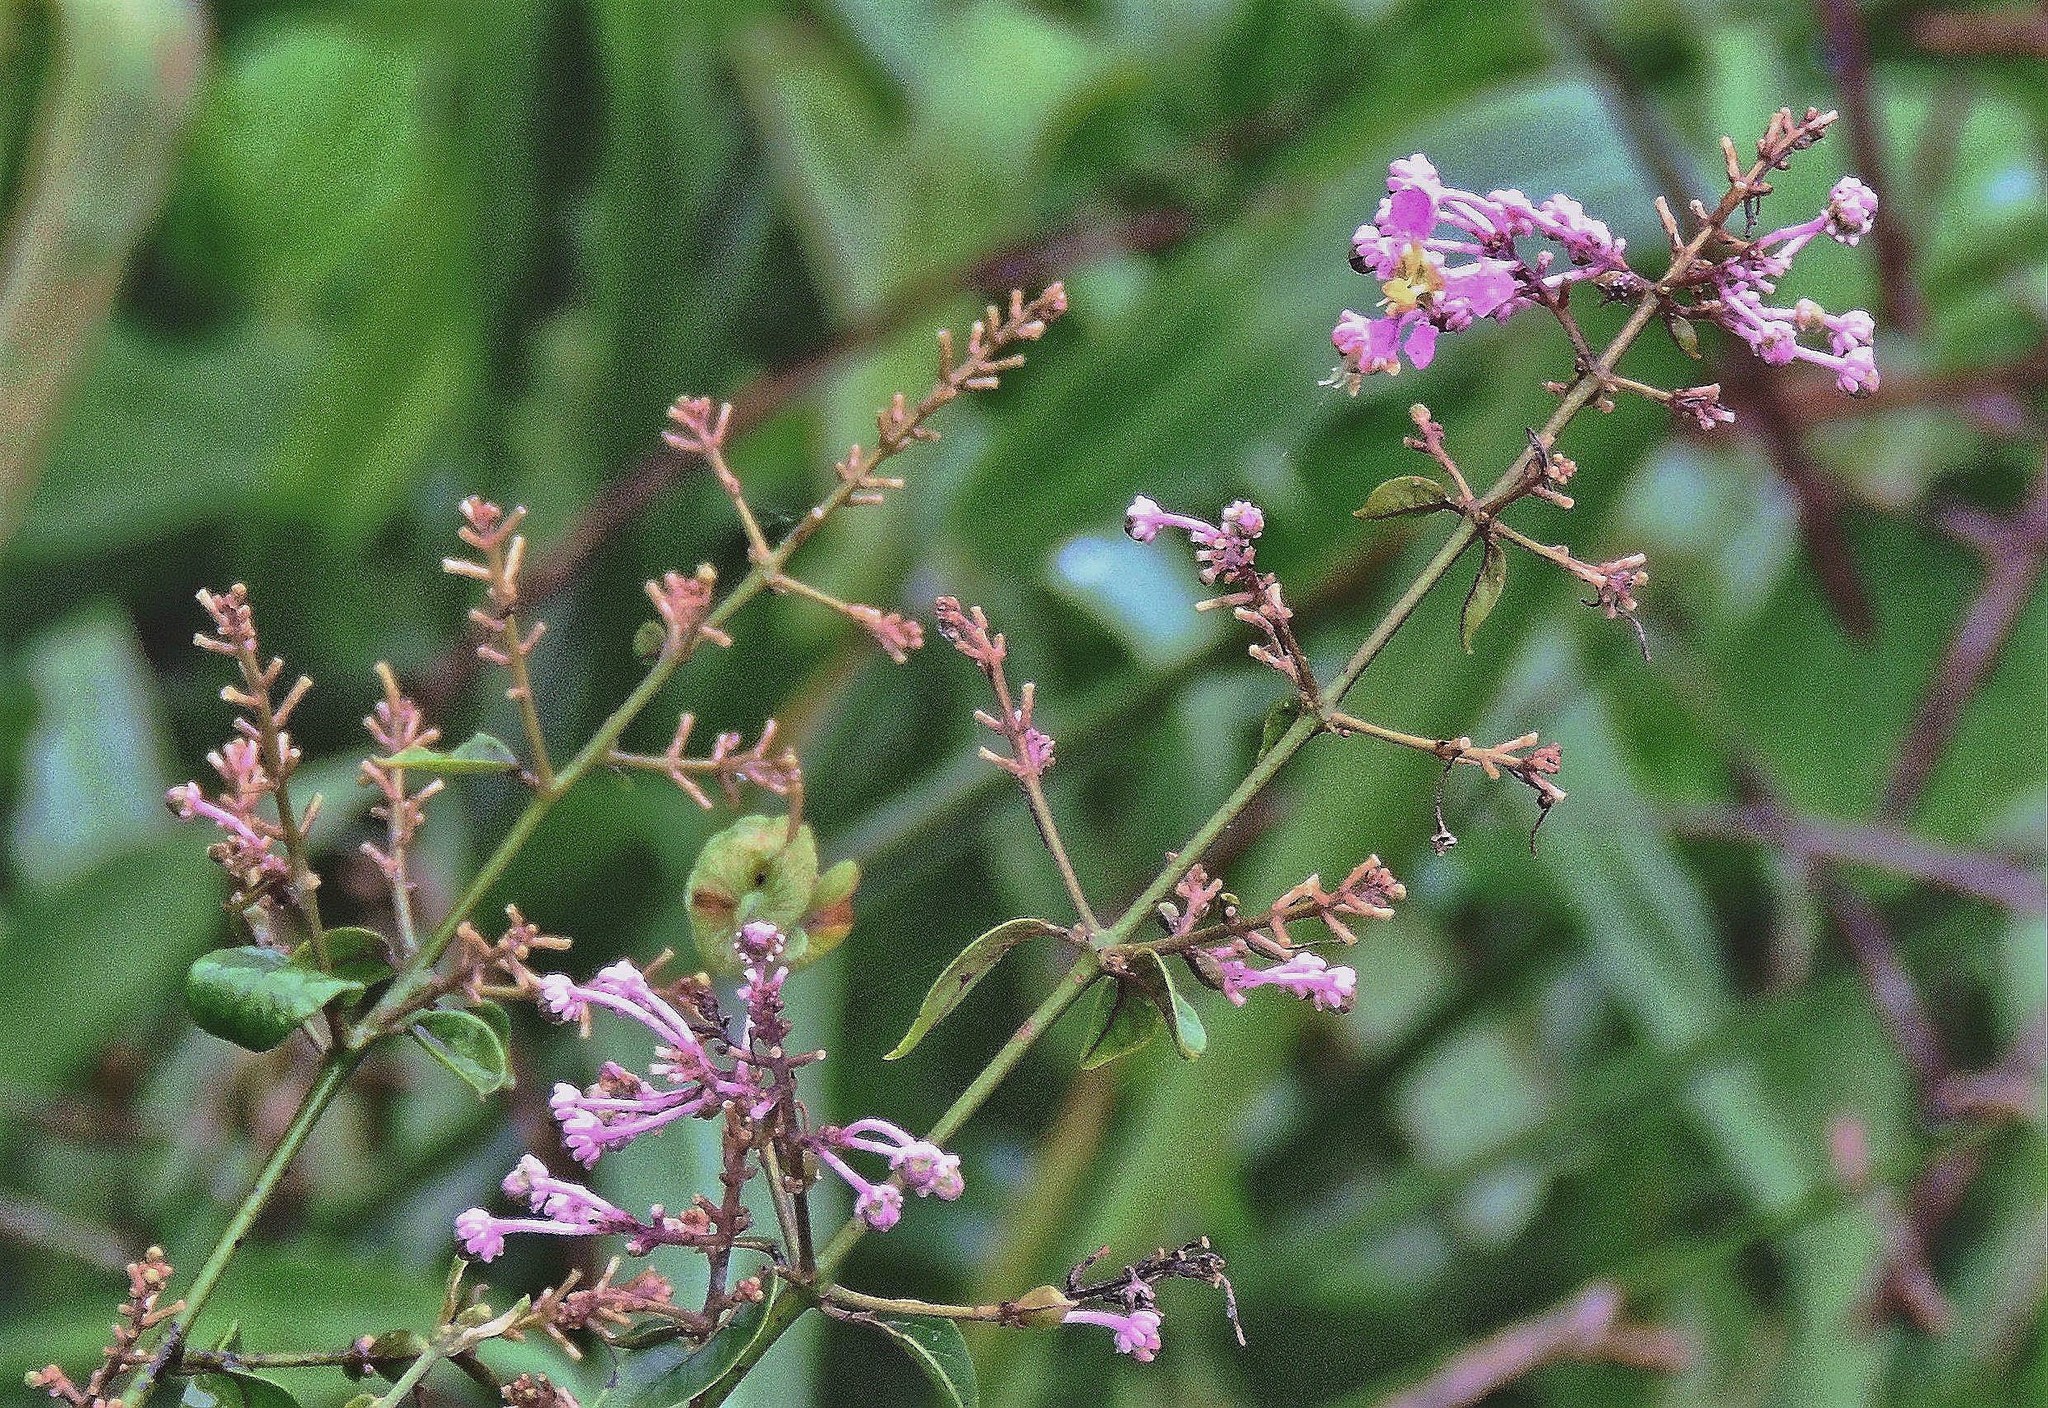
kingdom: Plantae
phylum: Tracheophyta
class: Magnoliopsida
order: Malpighiales
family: Malpighiaceae
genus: Mascagnia
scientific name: Mascagnia divaricata
